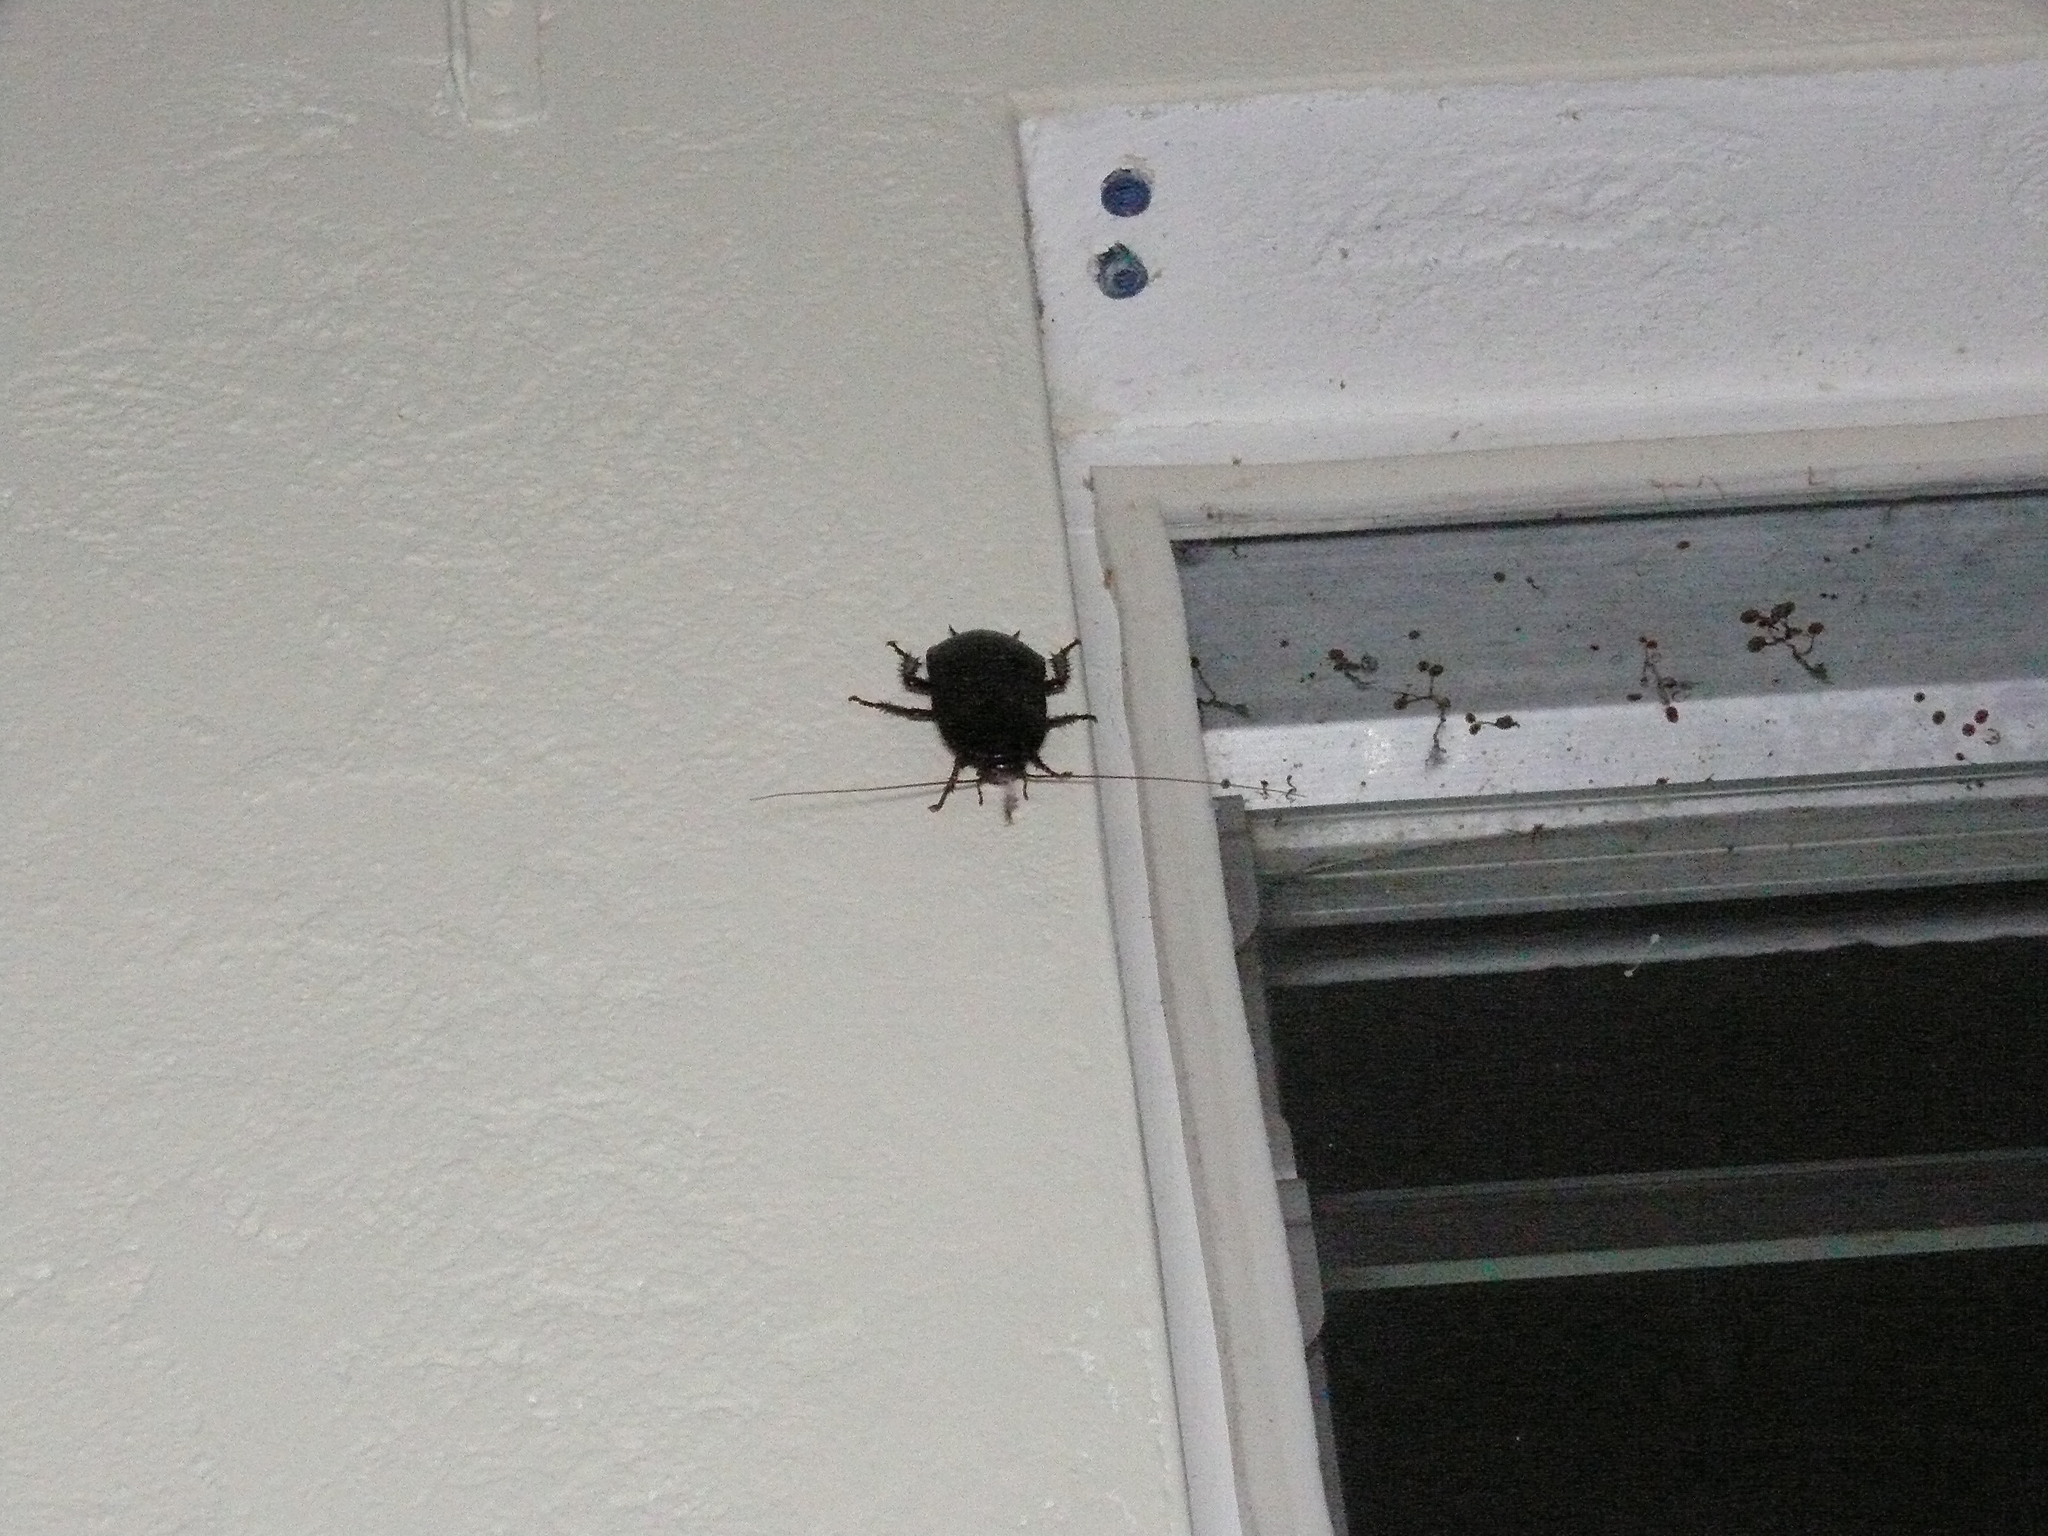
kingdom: Animalia
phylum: Arthropoda
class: Insecta
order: Blattodea
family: Blattidae
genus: Eurycotis
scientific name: Eurycotis floridana
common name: Florida cockroach
